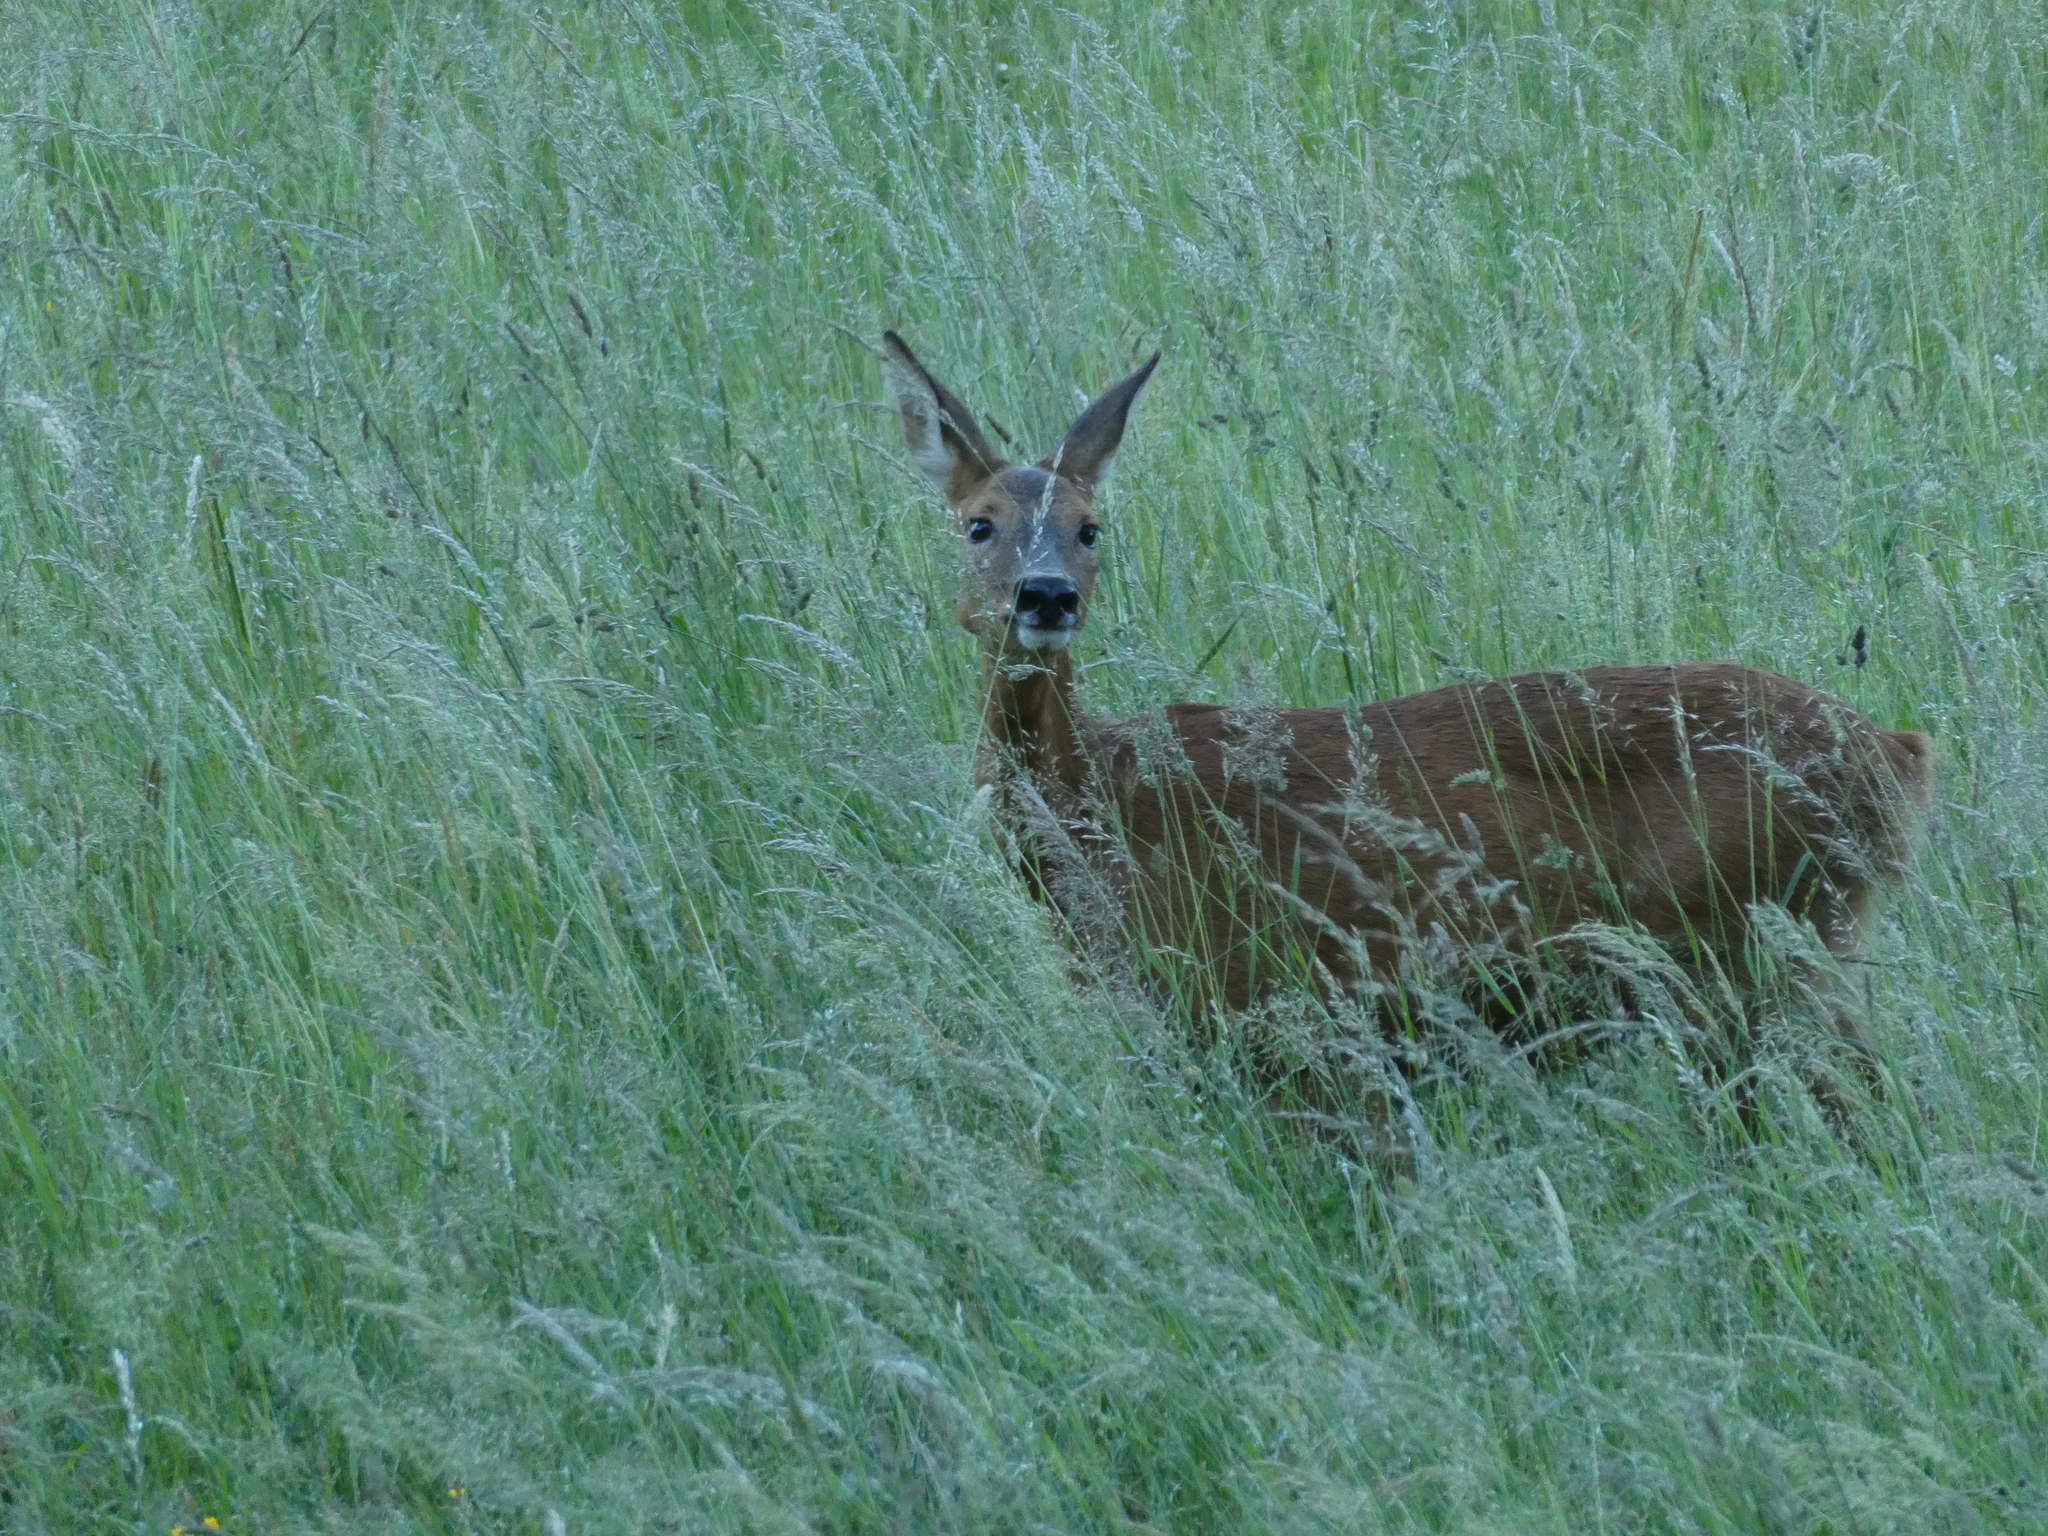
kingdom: Animalia
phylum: Chordata
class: Mammalia
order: Artiodactyla
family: Cervidae
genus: Capreolus
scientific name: Capreolus capreolus
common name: Western roe deer
